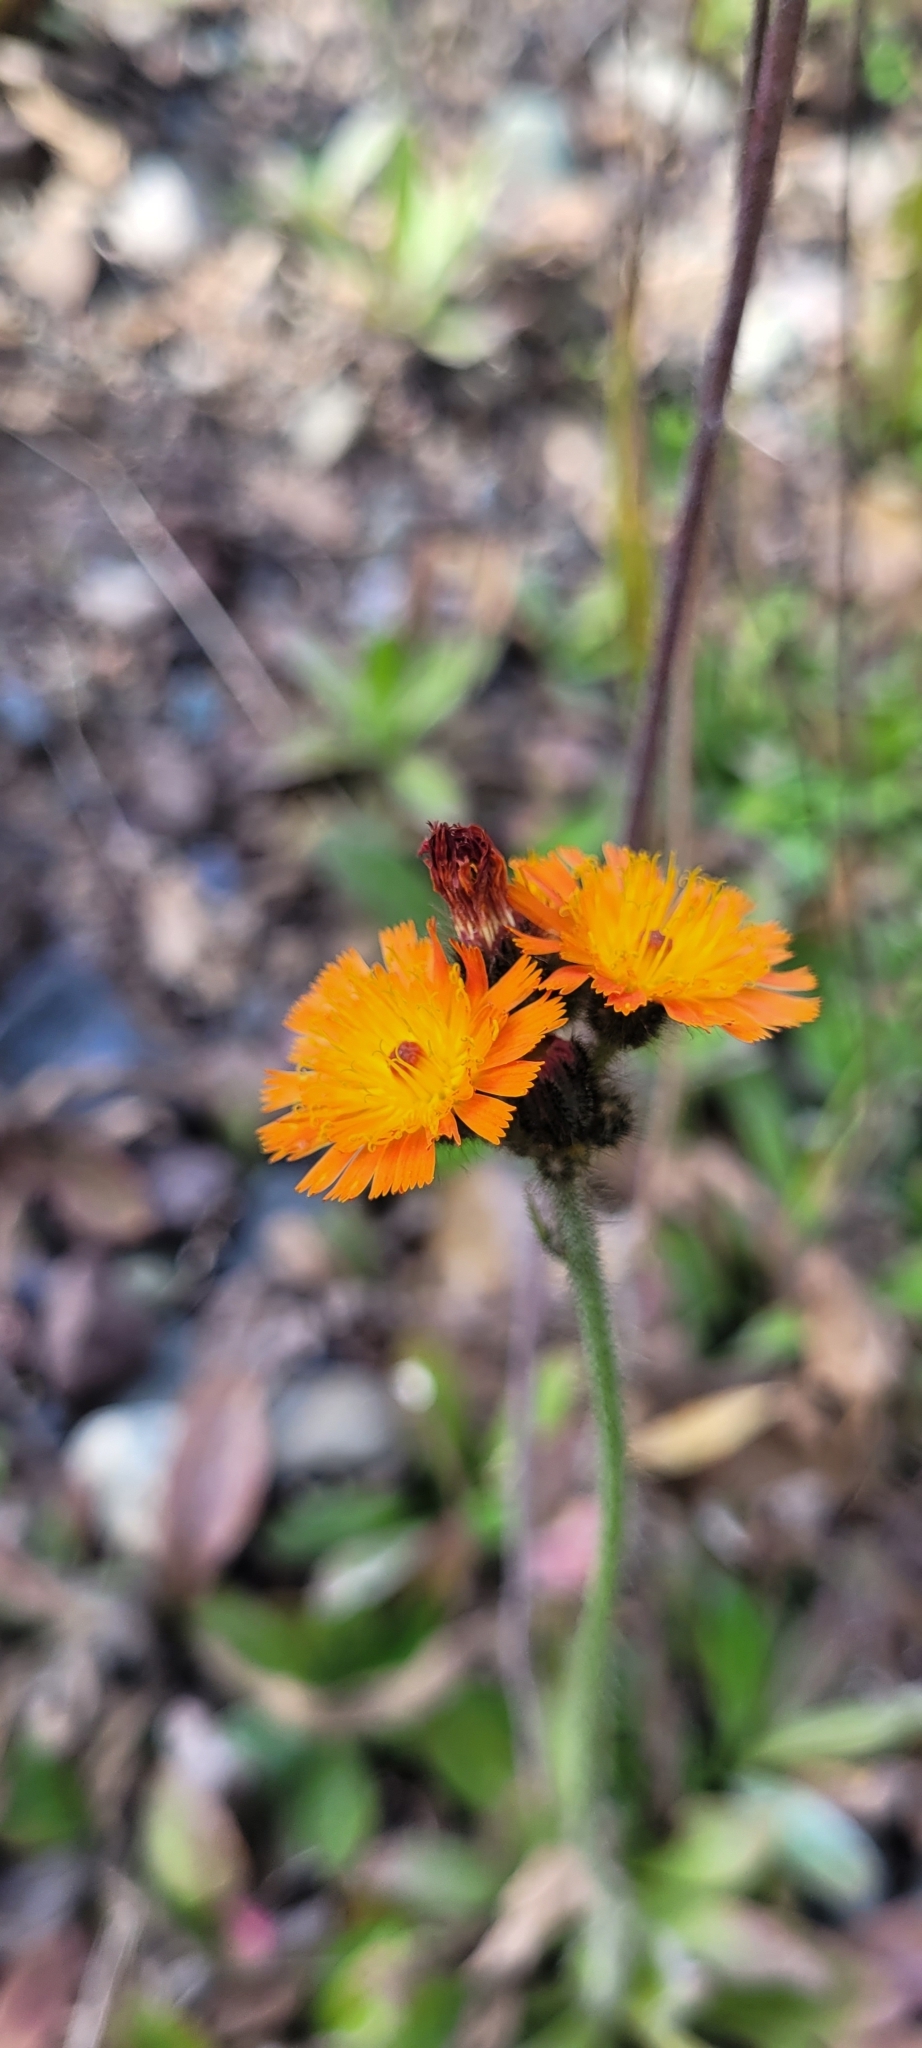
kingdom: Plantae
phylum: Tracheophyta
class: Magnoliopsida
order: Asterales
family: Asteraceae
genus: Pilosella
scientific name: Pilosella aurantiaca
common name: Fox-and-cubs
